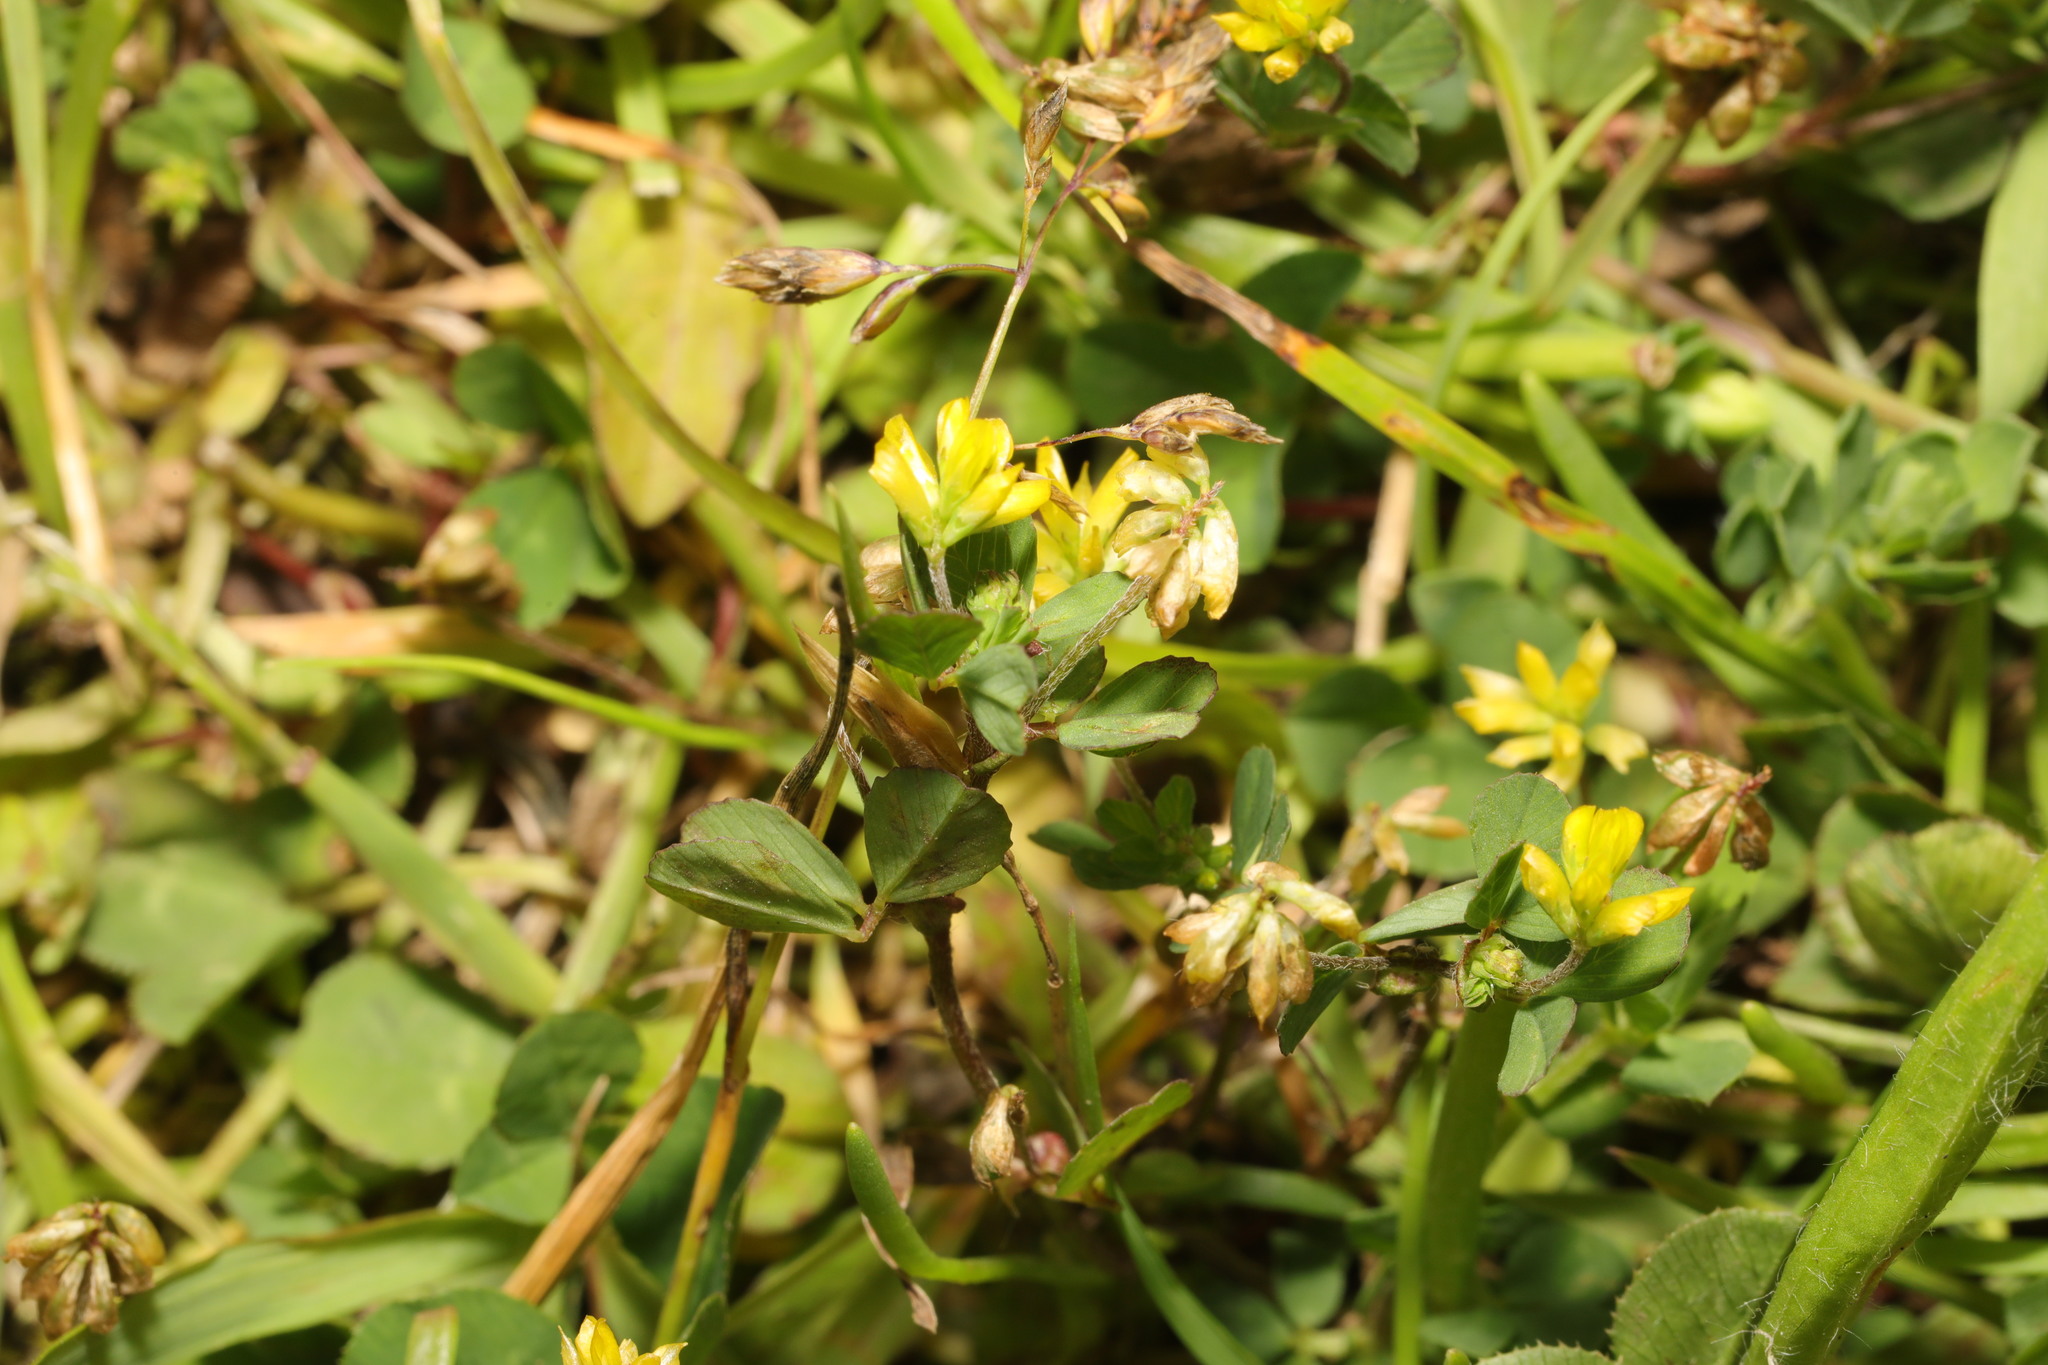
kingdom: Plantae
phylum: Tracheophyta
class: Magnoliopsida
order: Fabales
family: Fabaceae
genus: Trifolium
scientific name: Trifolium dubium
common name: Suckling clover
